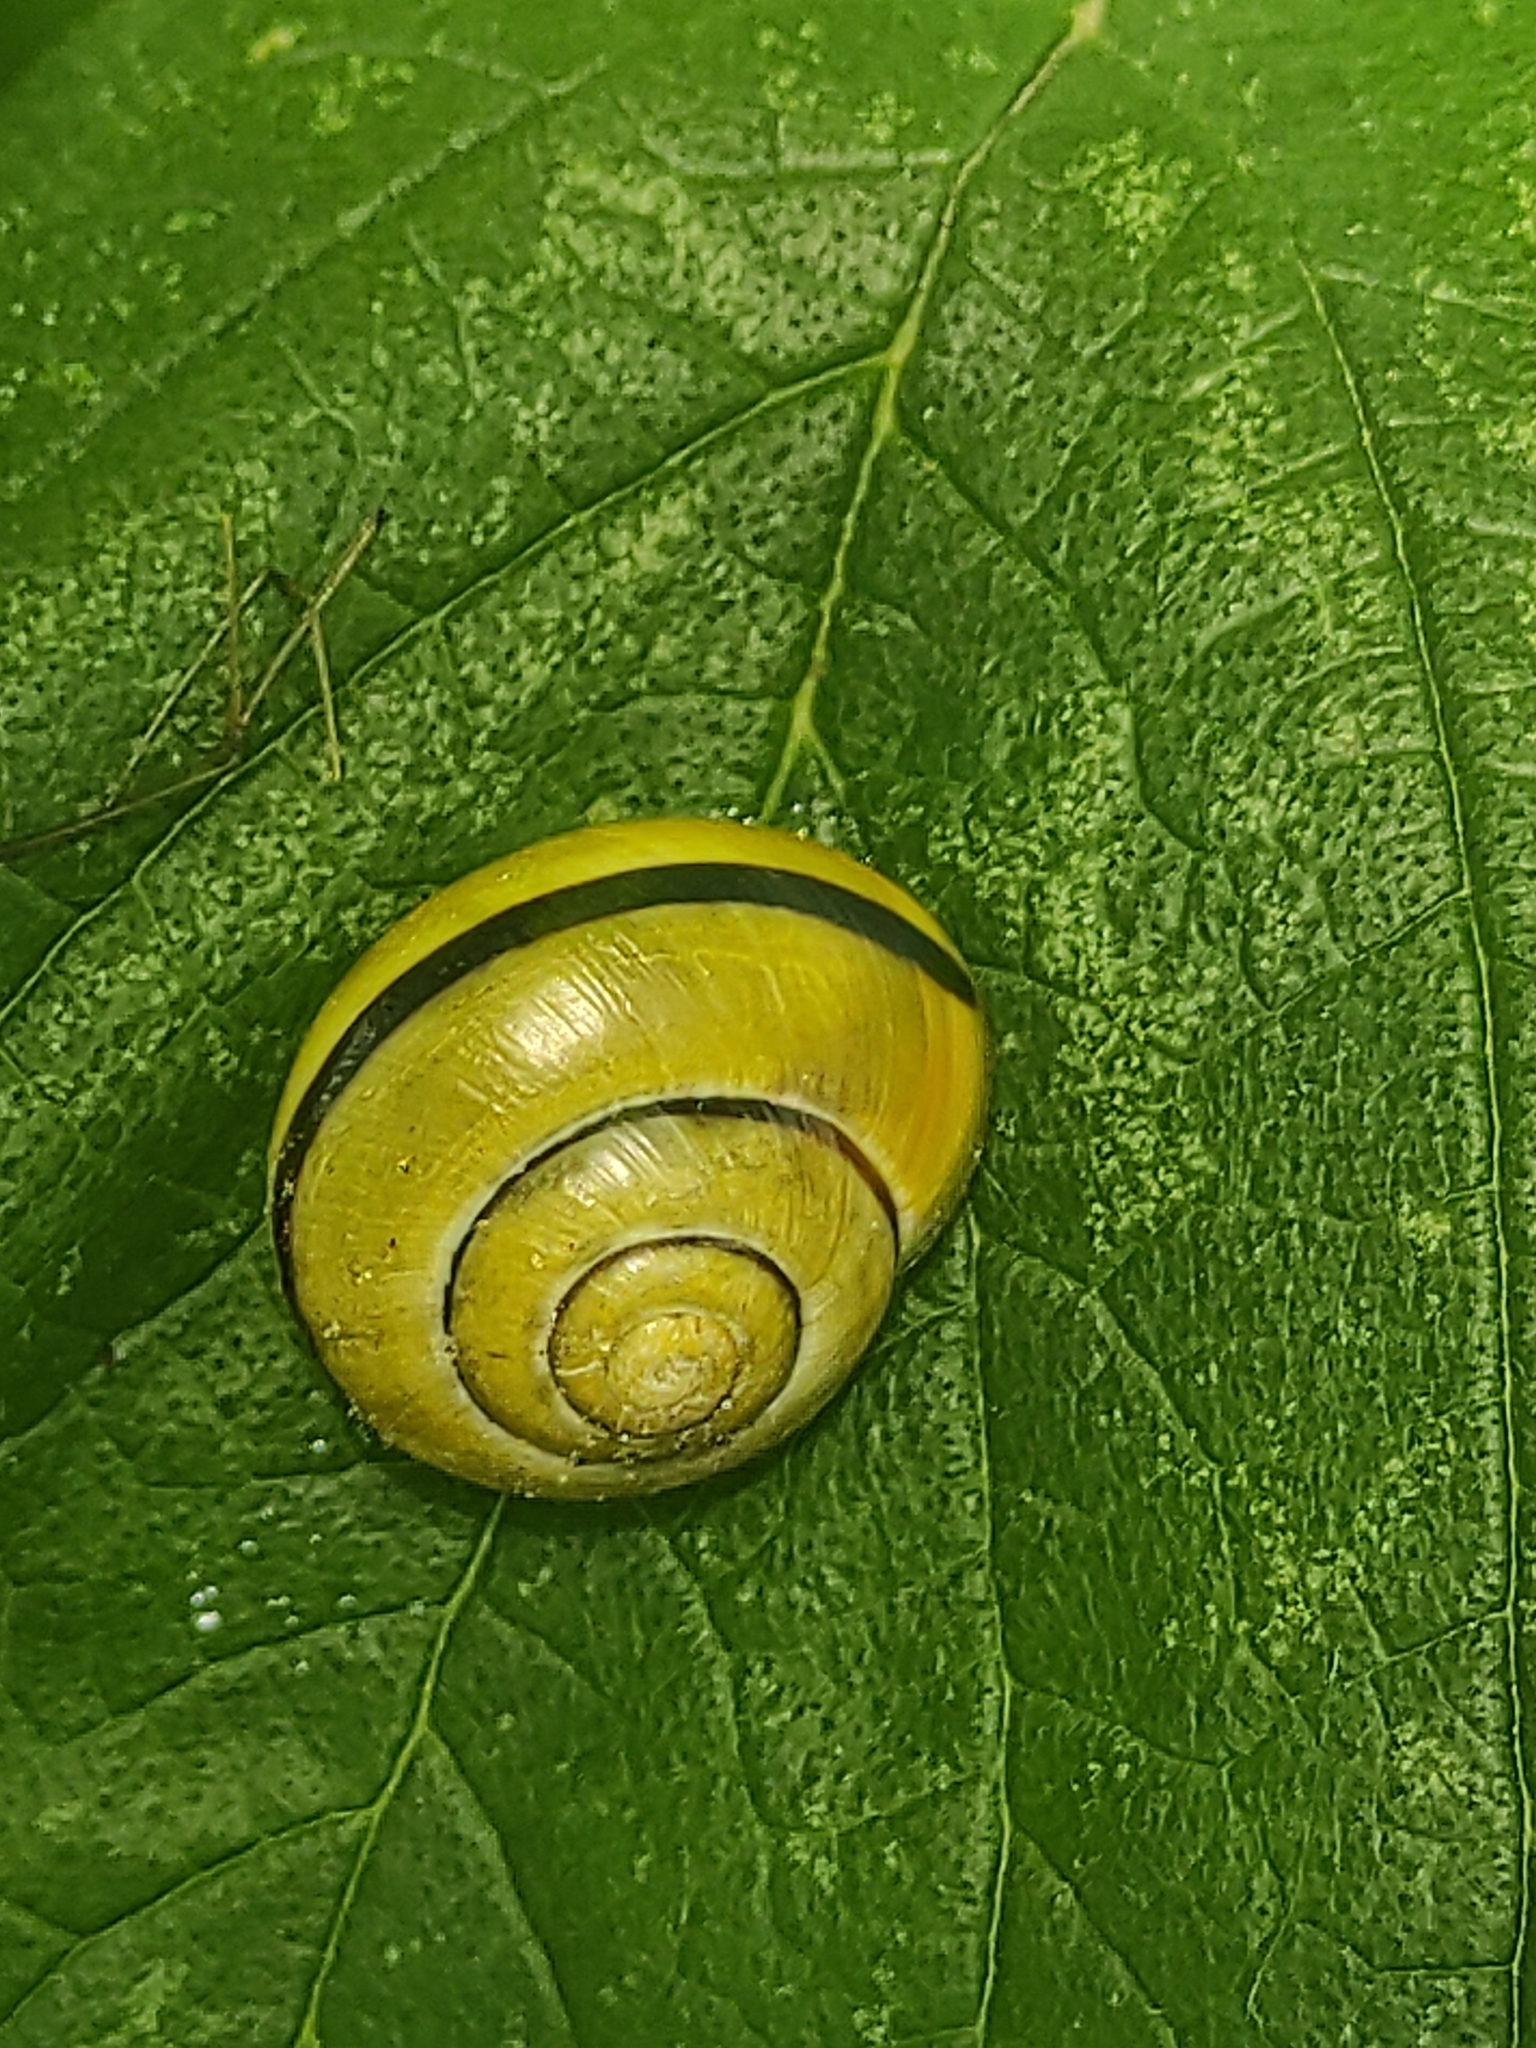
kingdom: Animalia
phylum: Mollusca
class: Gastropoda
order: Stylommatophora
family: Helicidae
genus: Cepaea
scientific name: Cepaea nemoralis
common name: Grovesnail
